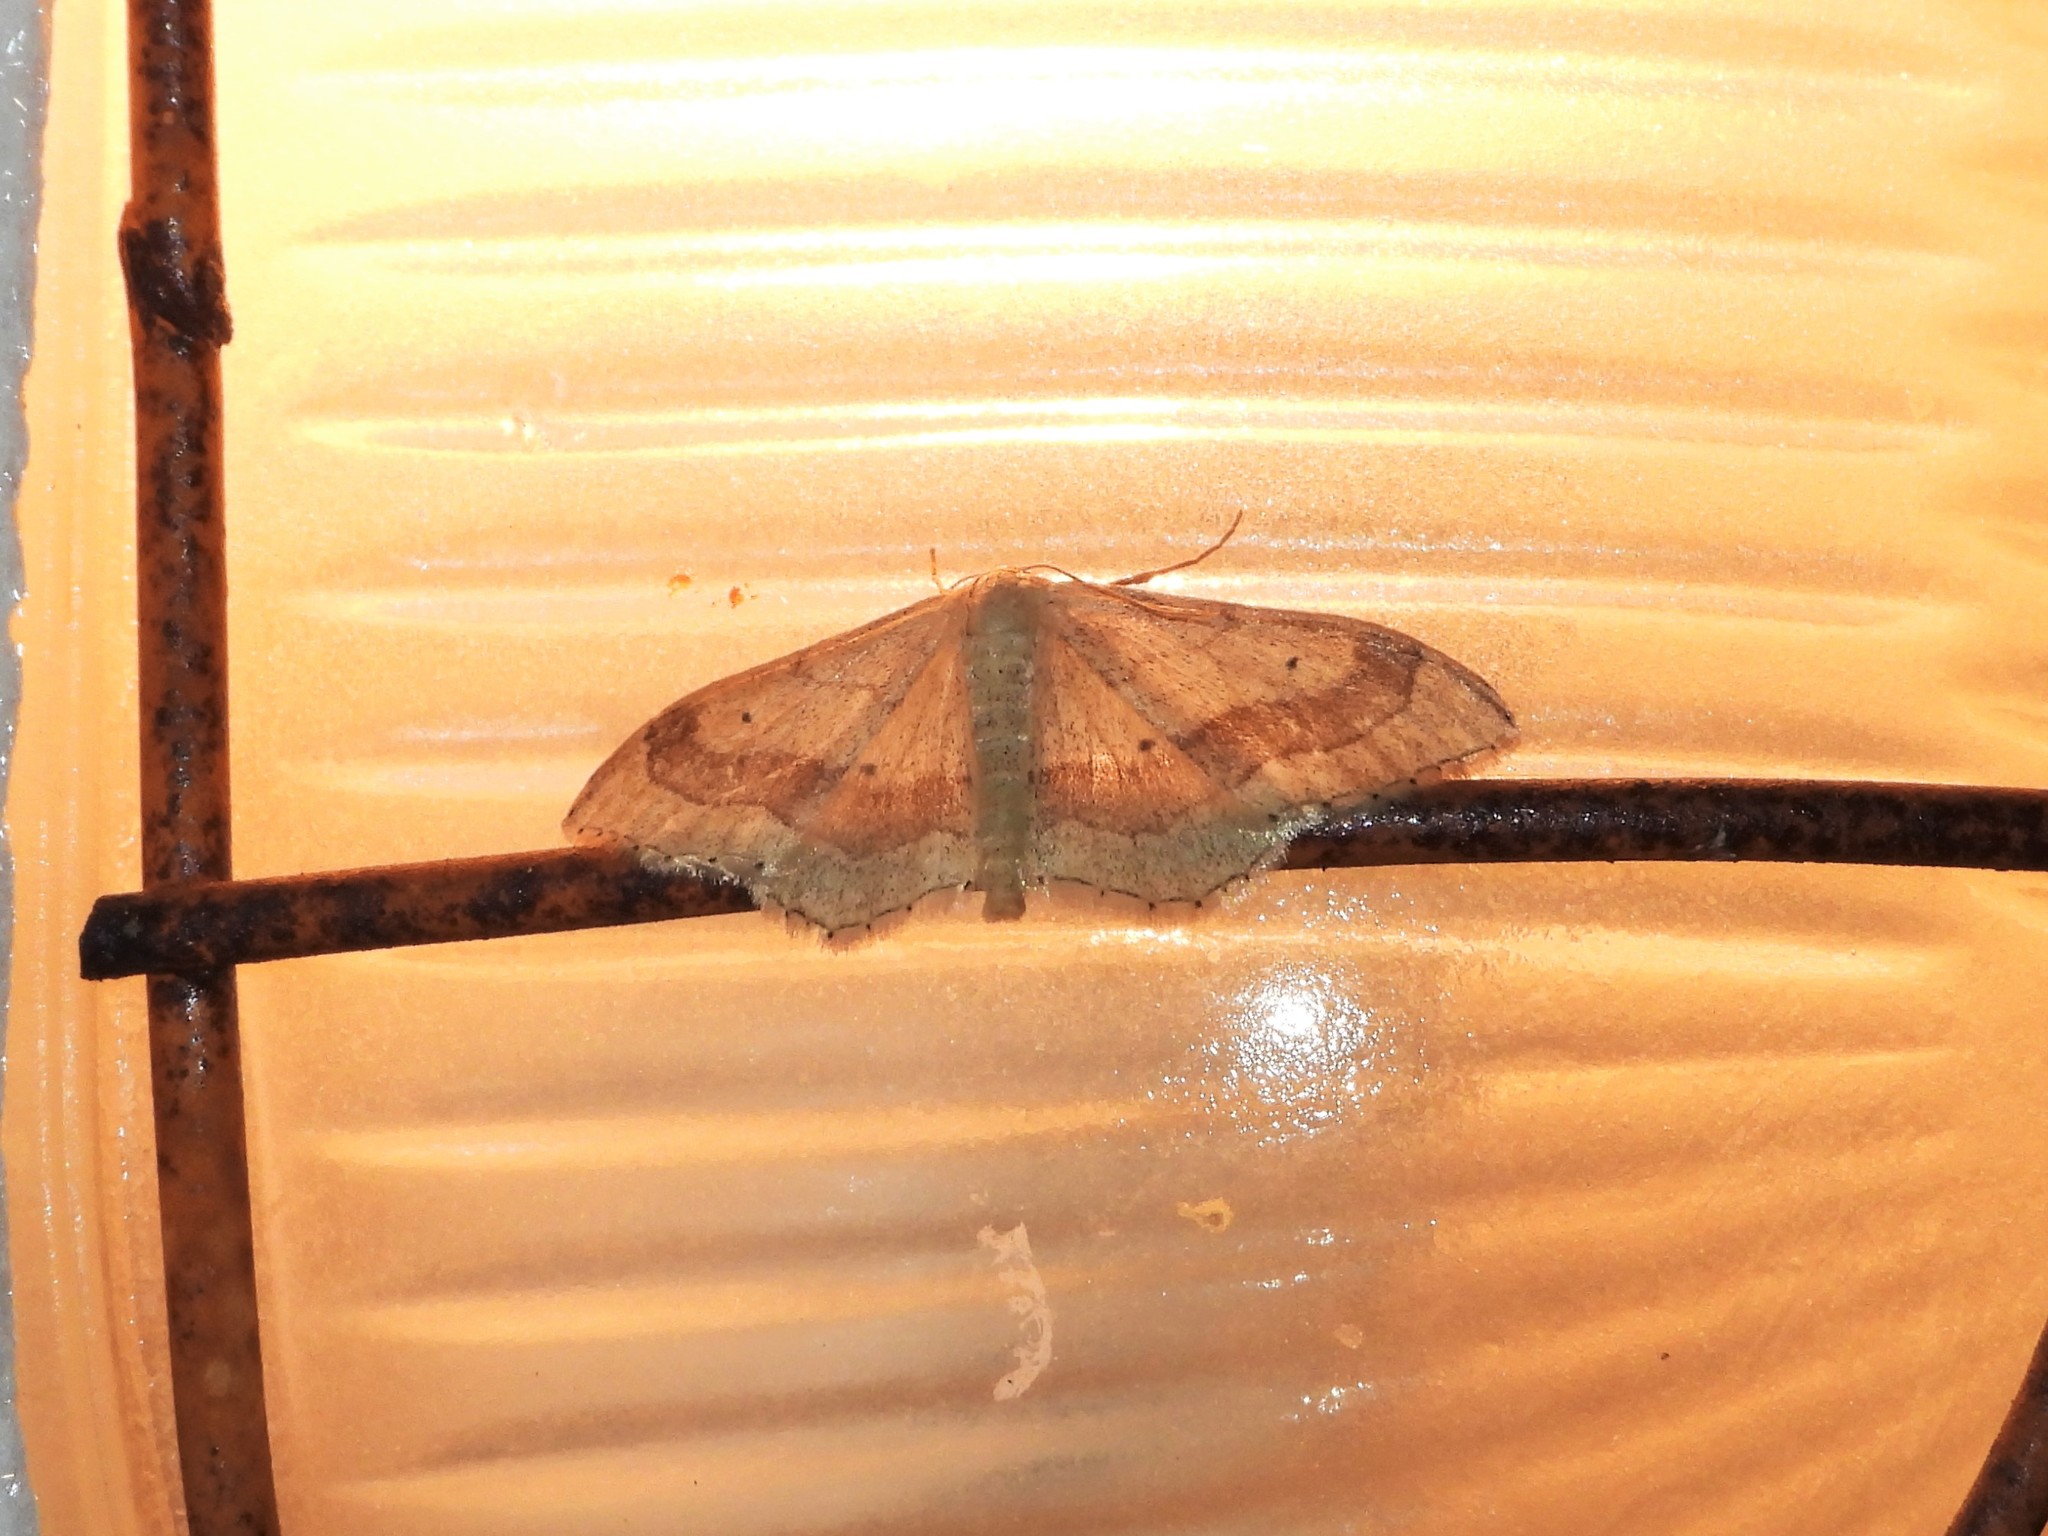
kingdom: Animalia
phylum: Arthropoda
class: Insecta
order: Lepidoptera
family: Geometridae
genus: Idaea
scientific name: Idaea aversata
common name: Riband wave
